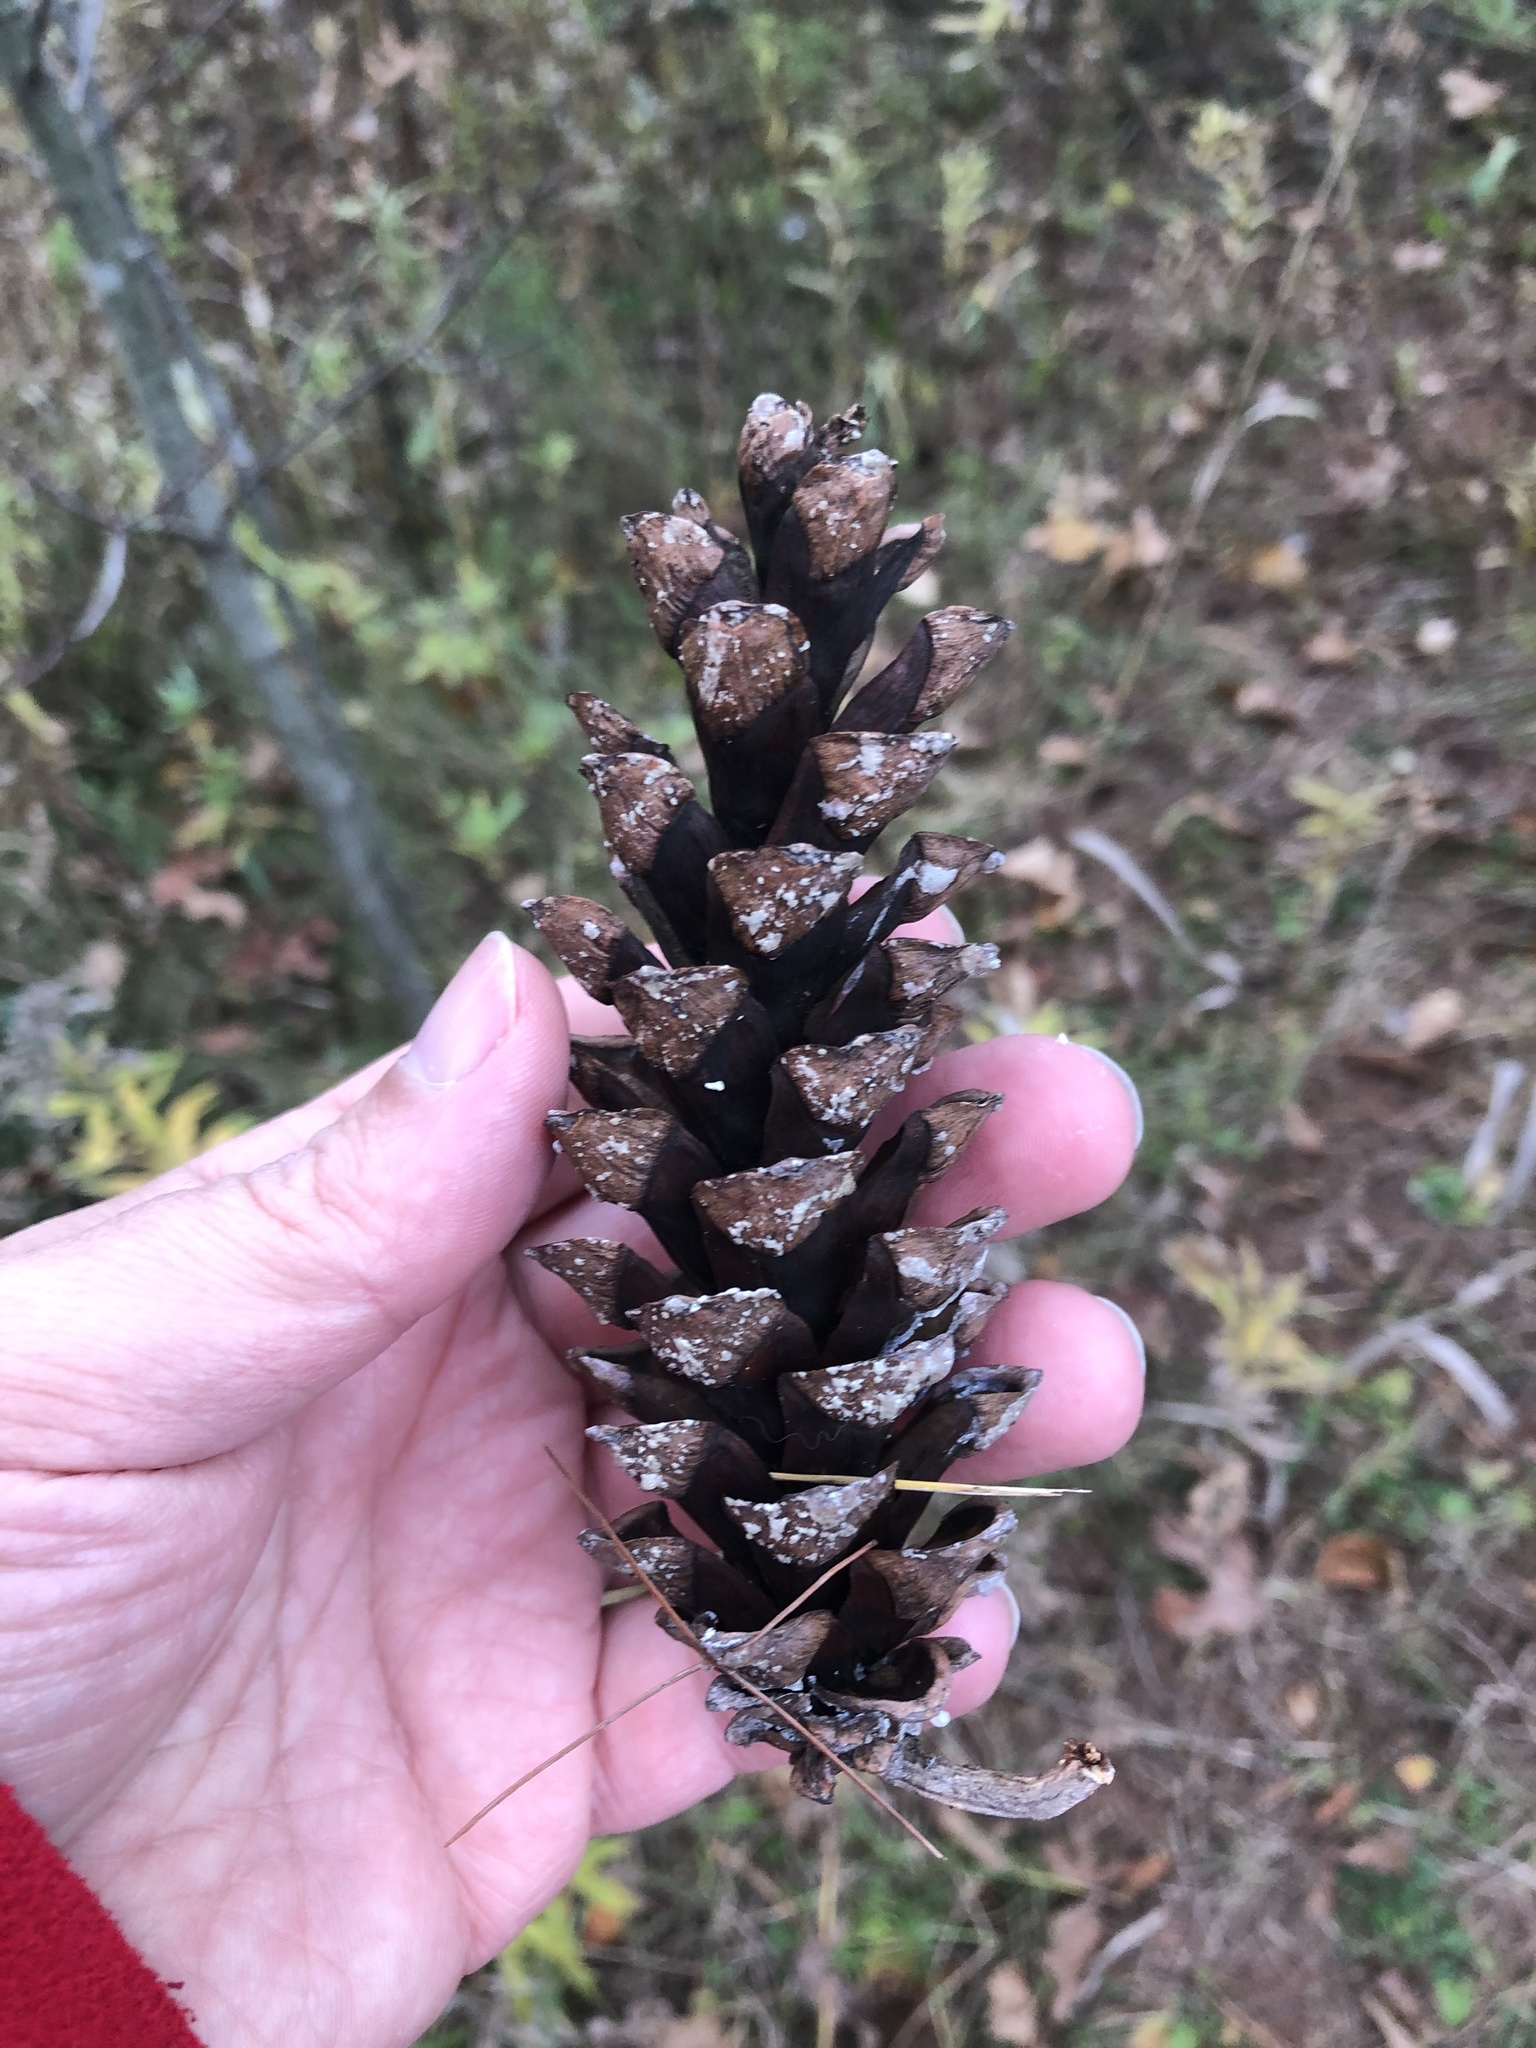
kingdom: Plantae
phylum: Tracheophyta
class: Pinopsida
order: Pinales
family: Pinaceae
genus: Pinus
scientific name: Pinus strobus
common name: Weymouth pine
